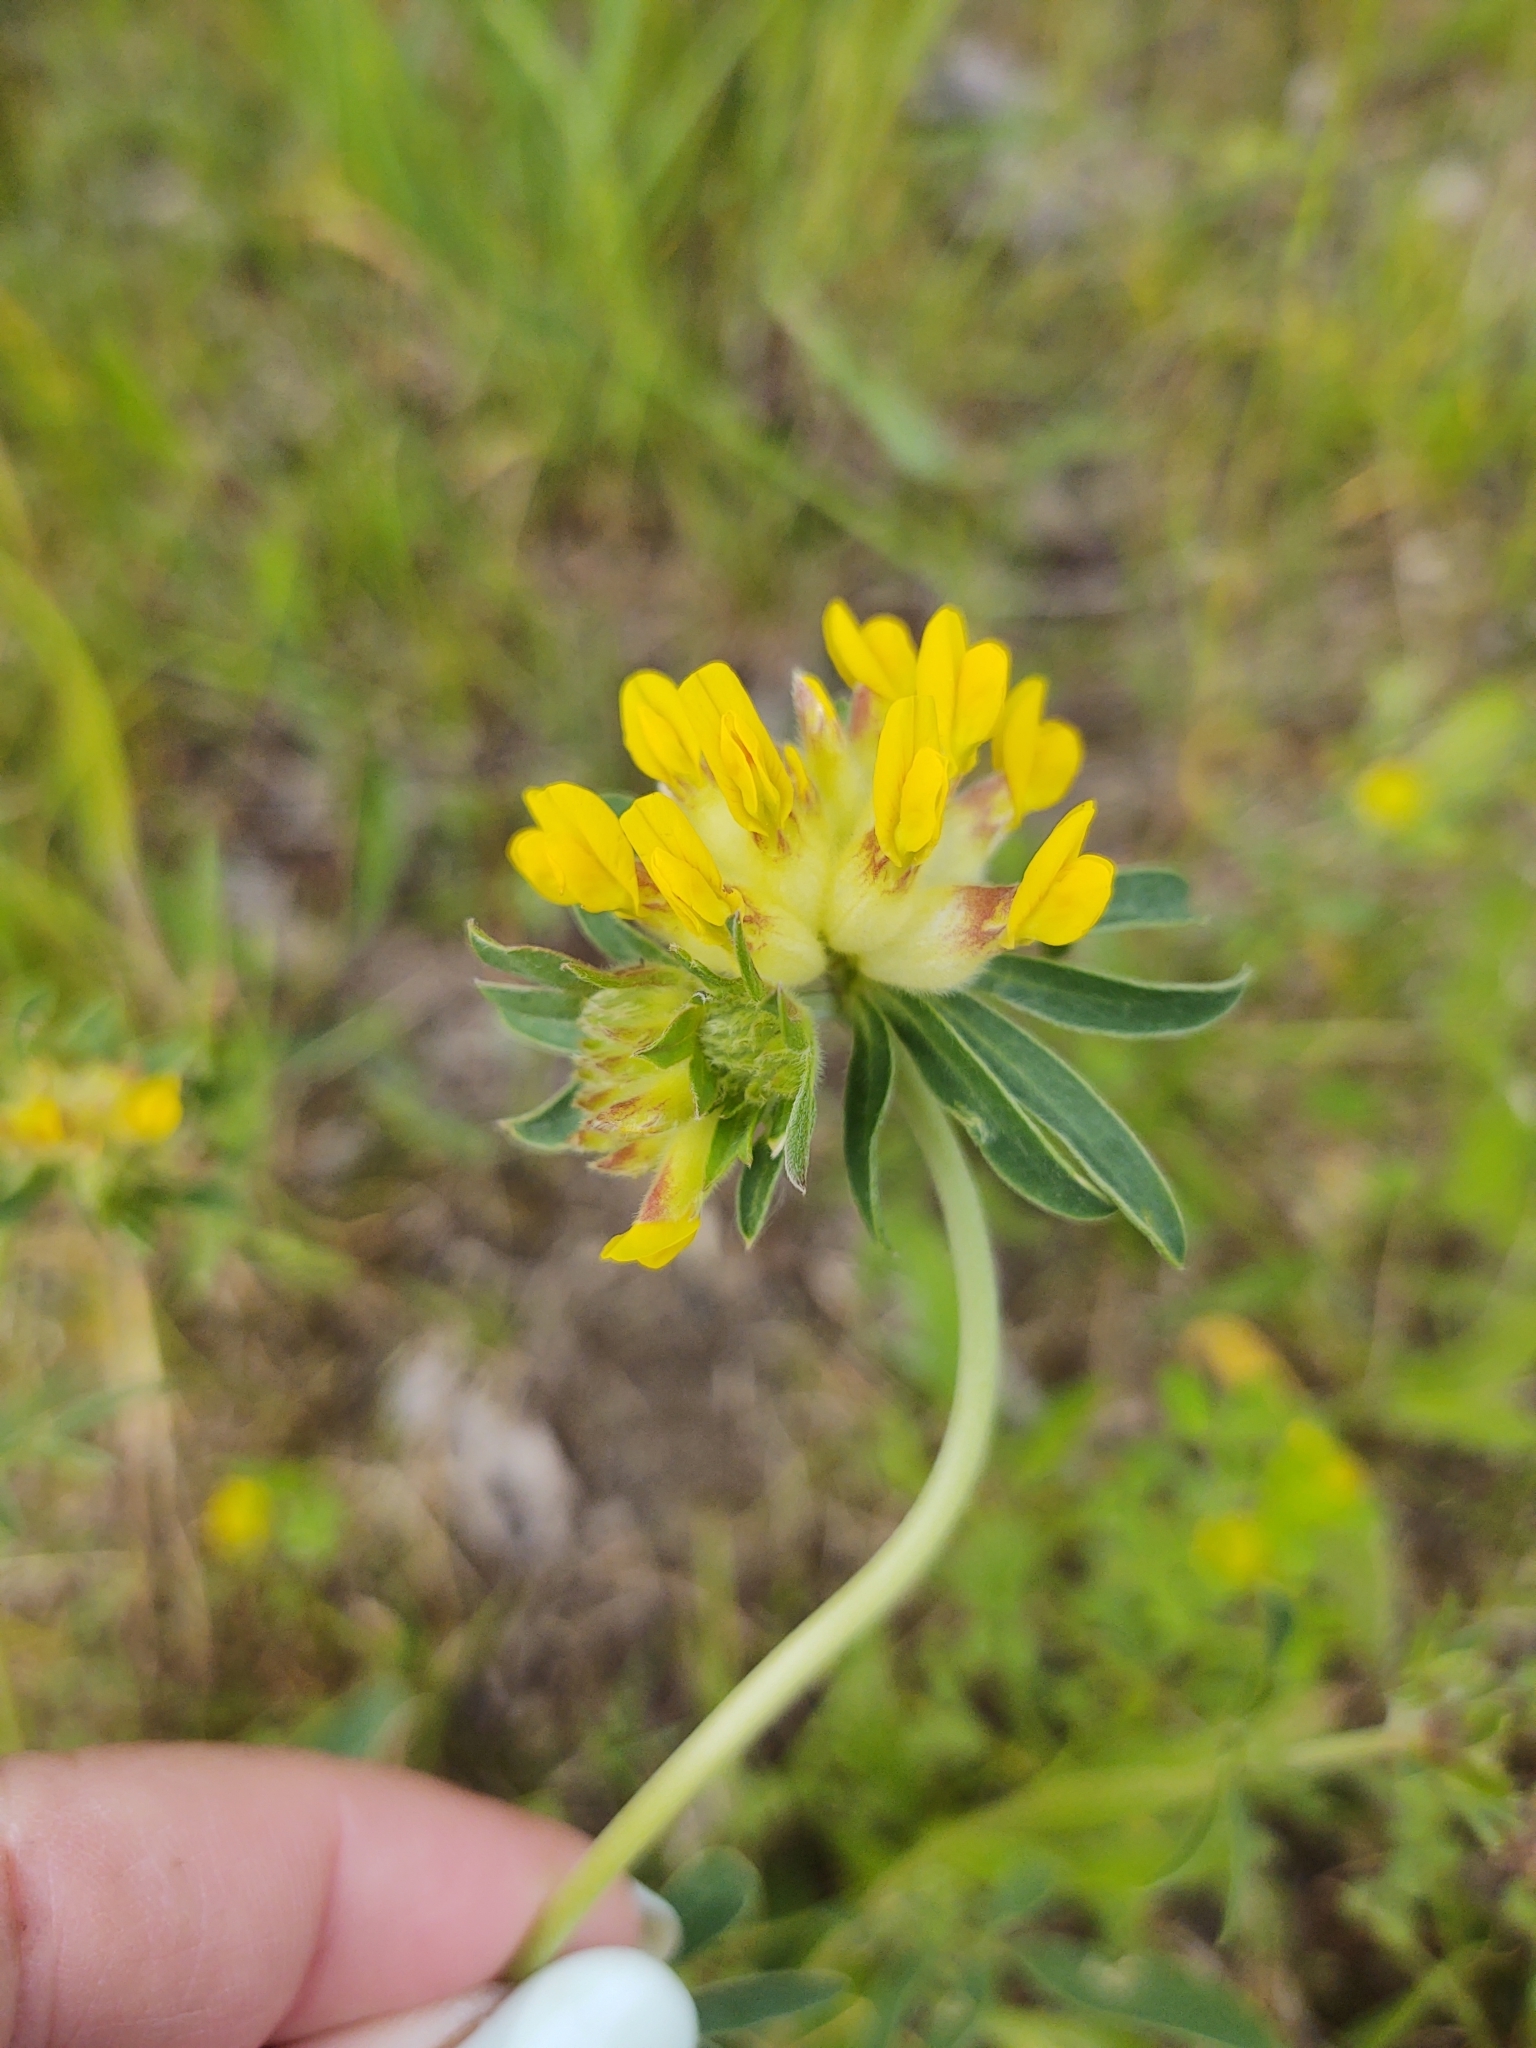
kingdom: Plantae
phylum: Tracheophyta
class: Magnoliopsida
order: Fabales
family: Fabaceae
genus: Anthyllis
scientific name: Anthyllis vulneraria
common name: Kidney vetch
